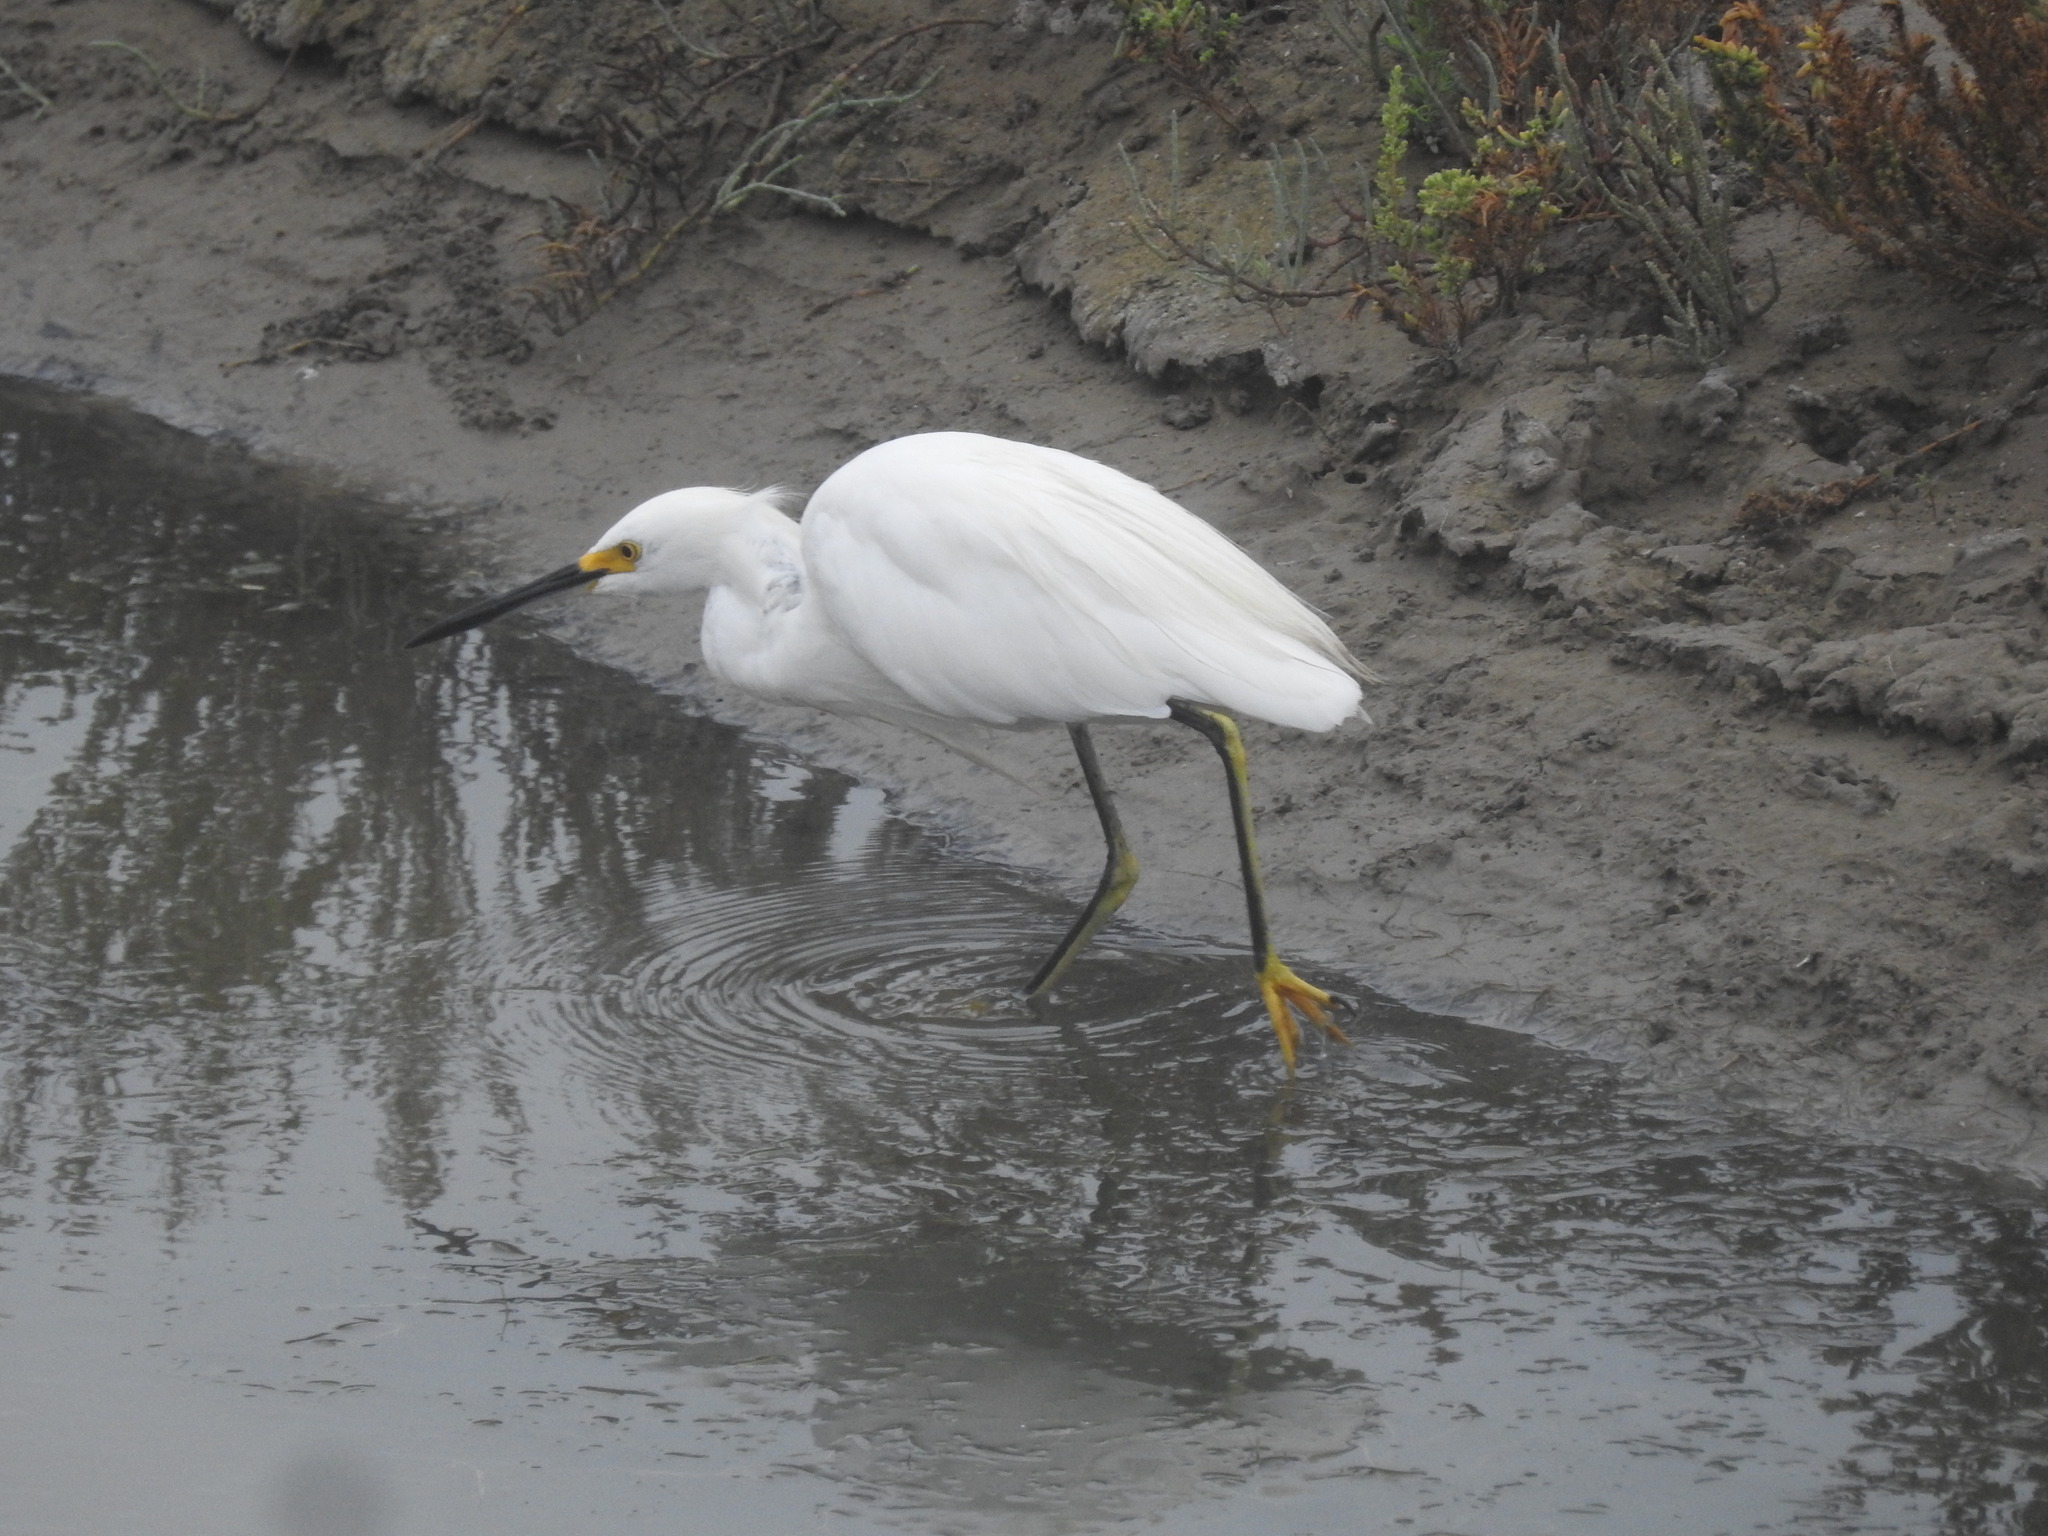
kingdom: Animalia
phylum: Chordata
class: Aves
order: Pelecaniformes
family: Ardeidae
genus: Egretta
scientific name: Egretta thula
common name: Snowy egret
